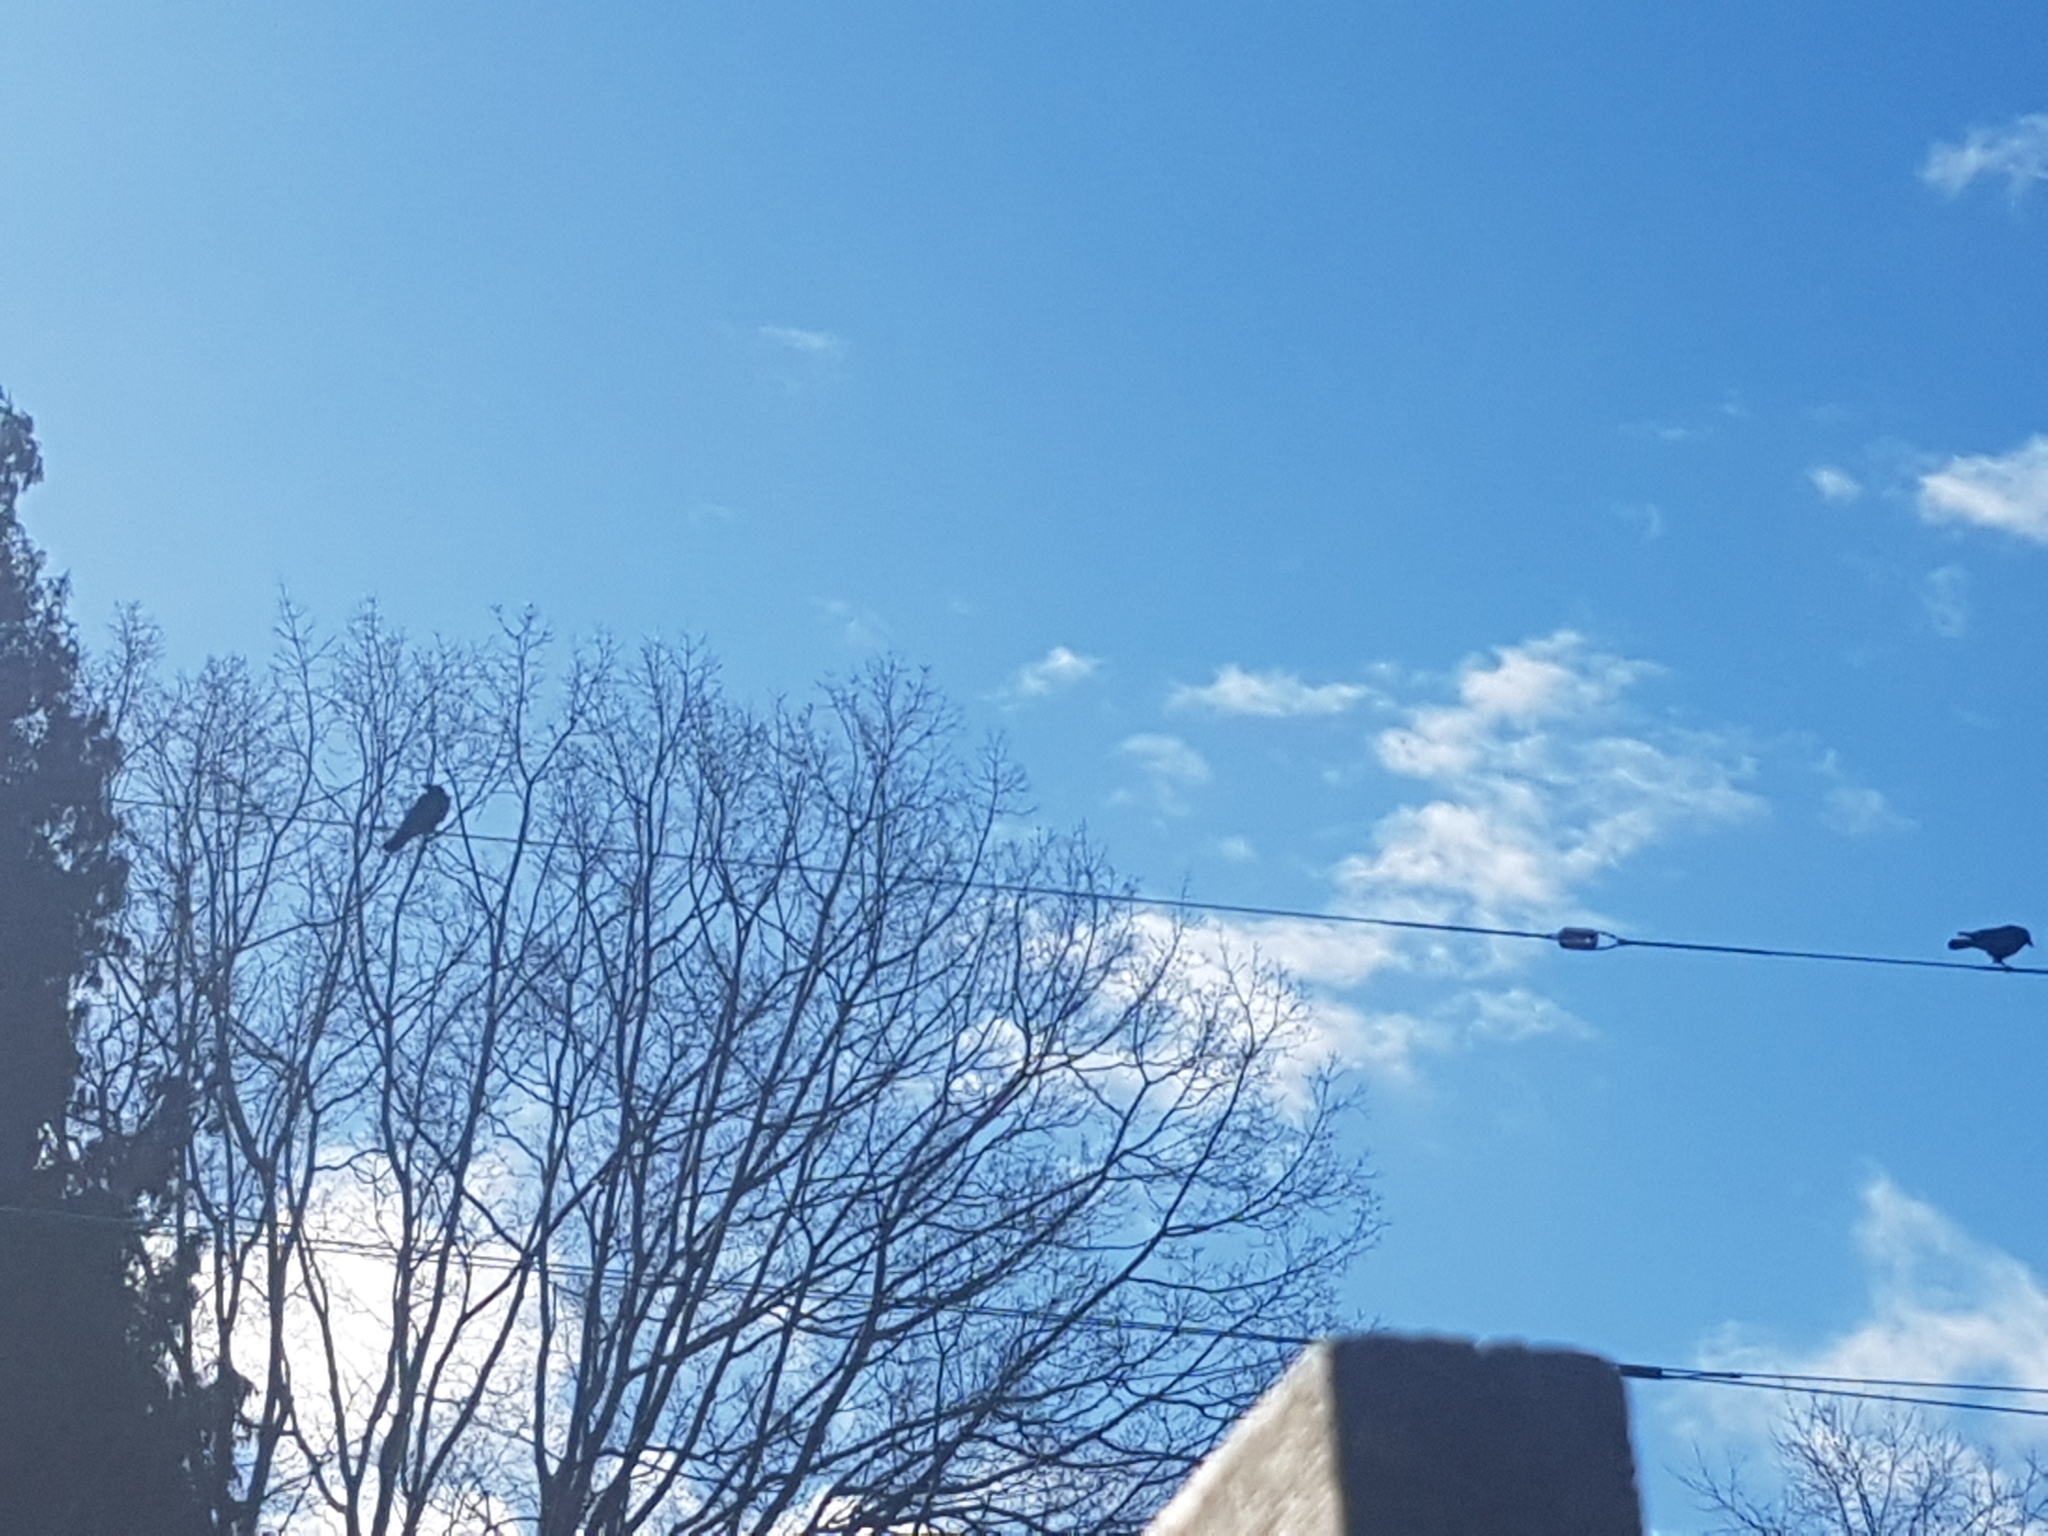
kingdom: Animalia
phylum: Chordata
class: Aves
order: Passeriformes
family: Corvidae
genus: Corvus
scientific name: Corvus brachyrhynchos
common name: American crow
